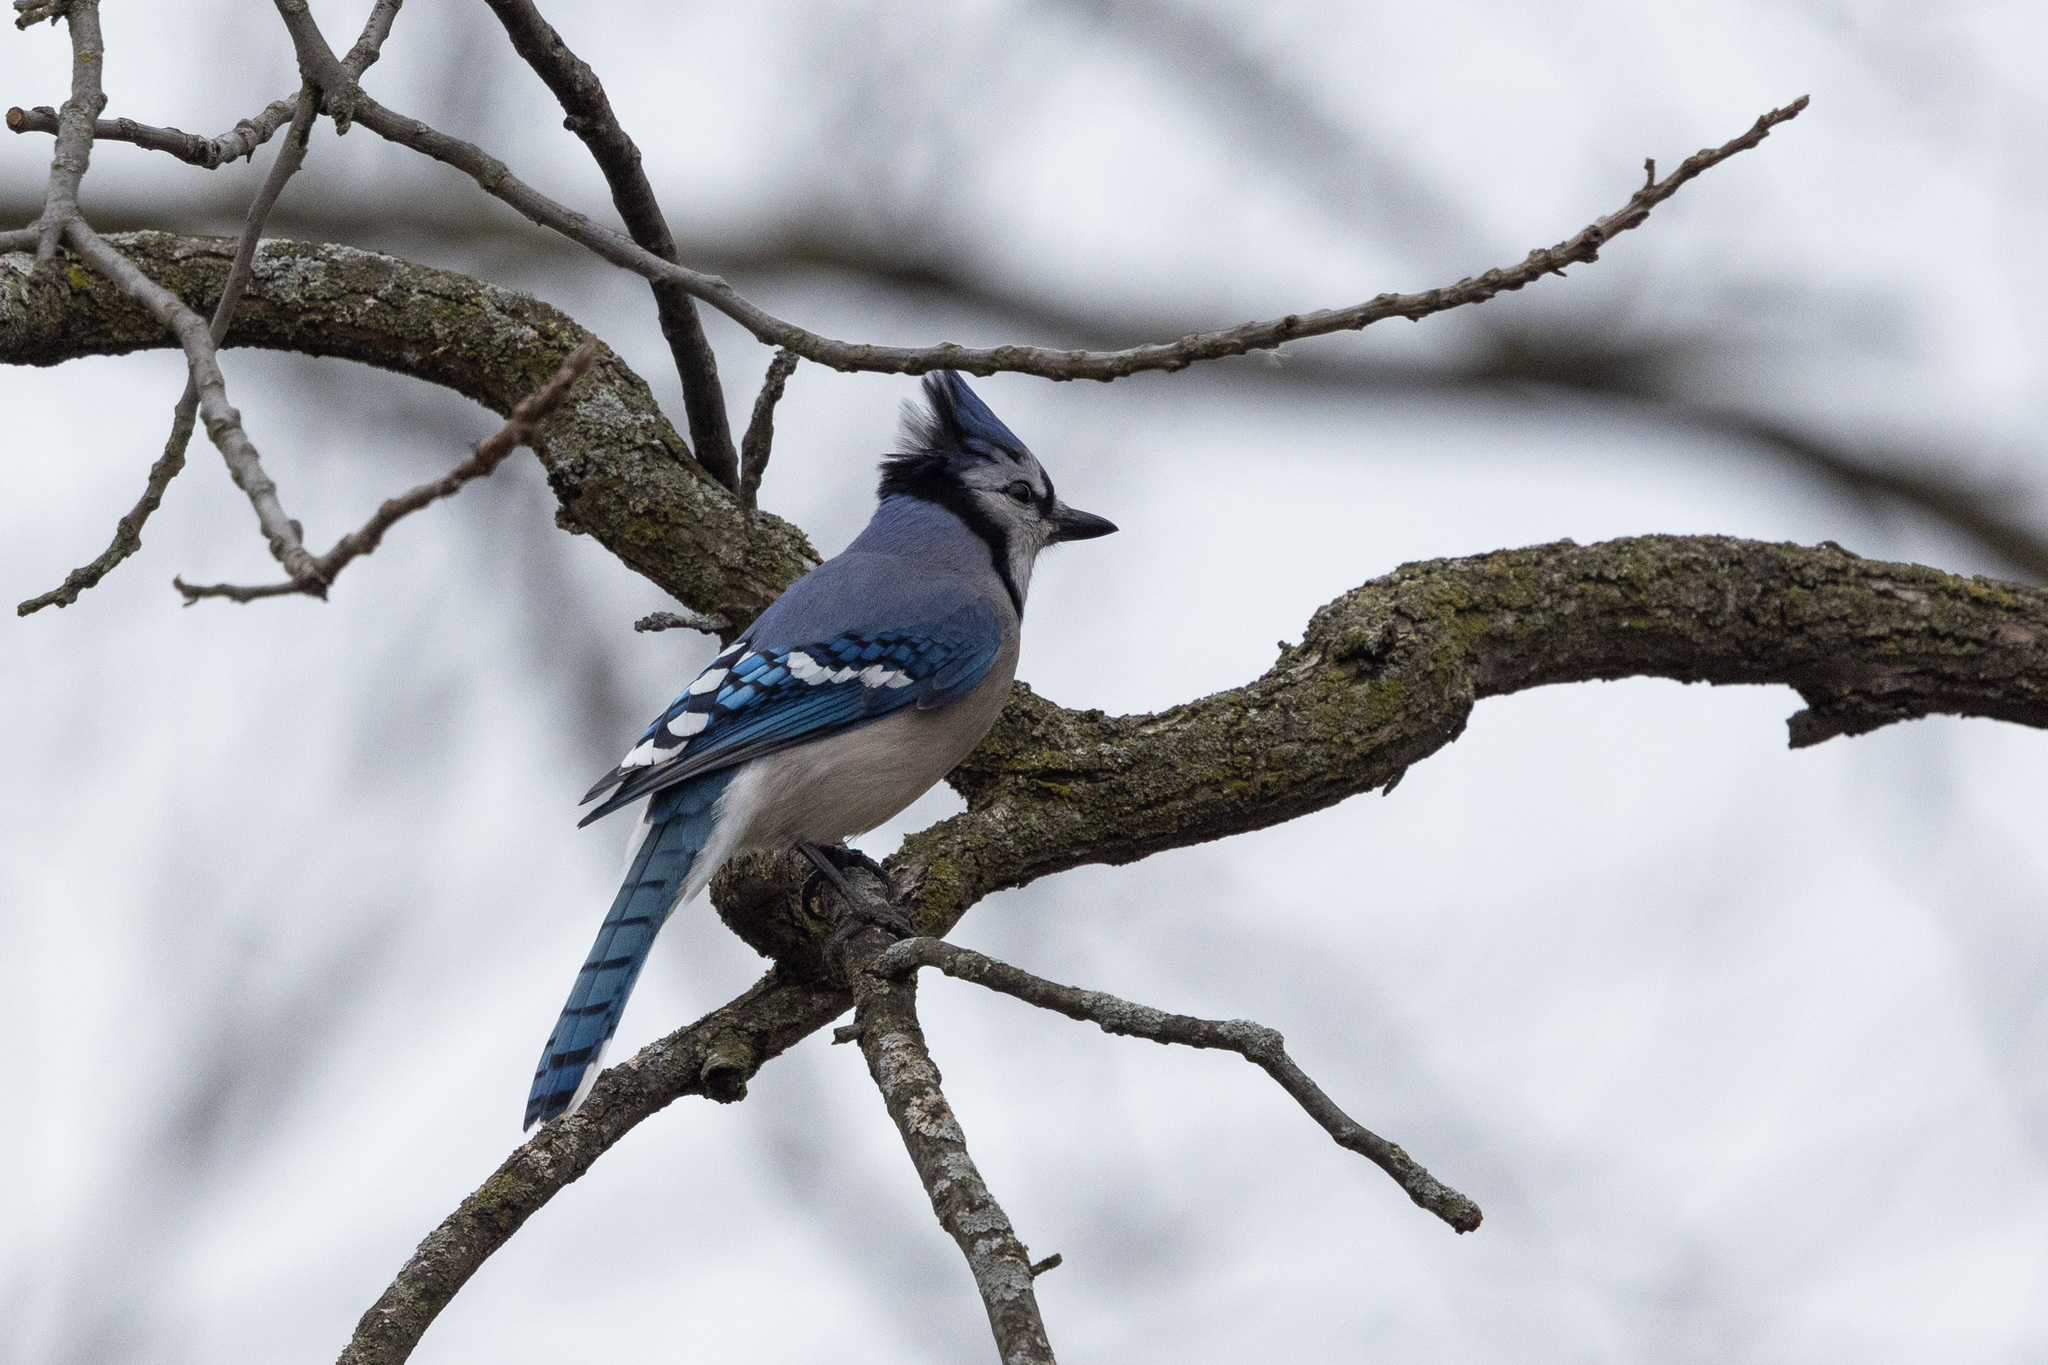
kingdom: Animalia
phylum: Chordata
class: Aves
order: Passeriformes
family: Corvidae
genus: Cyanocitta
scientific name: Cyanocitta cristata
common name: Blue jay
